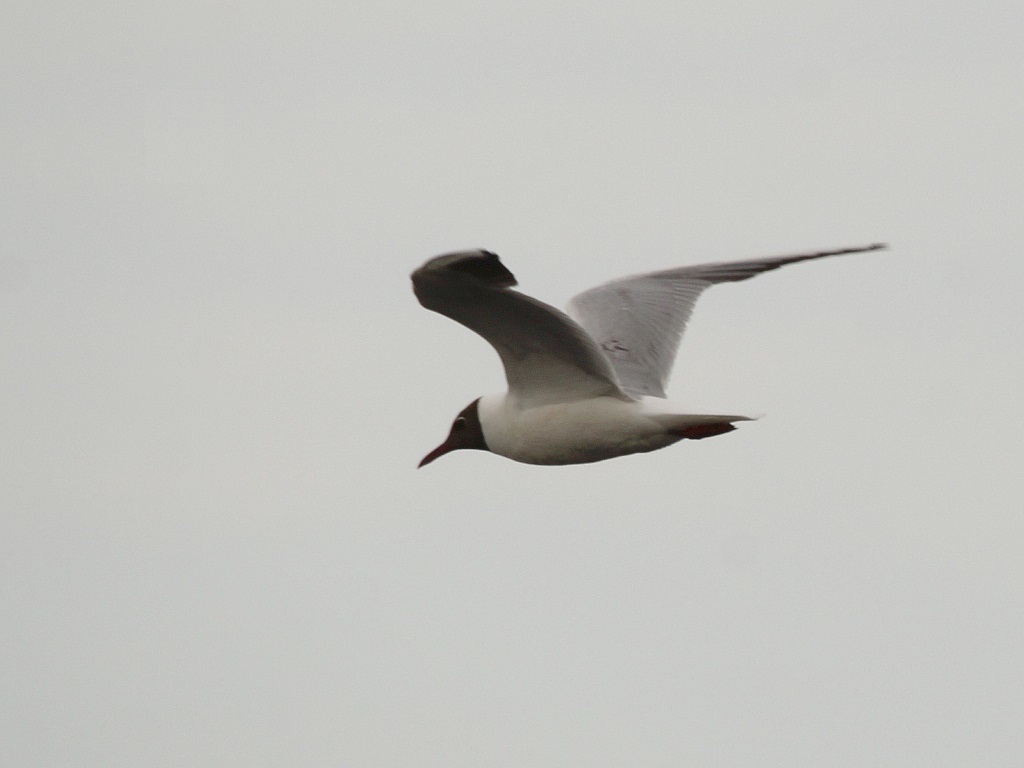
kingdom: Animalia
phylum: Chordata
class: Aves
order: Charadriiformes
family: Laridae
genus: Chroicocephalus
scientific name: Chroicocephalus ridibundus
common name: Black-headed gull
